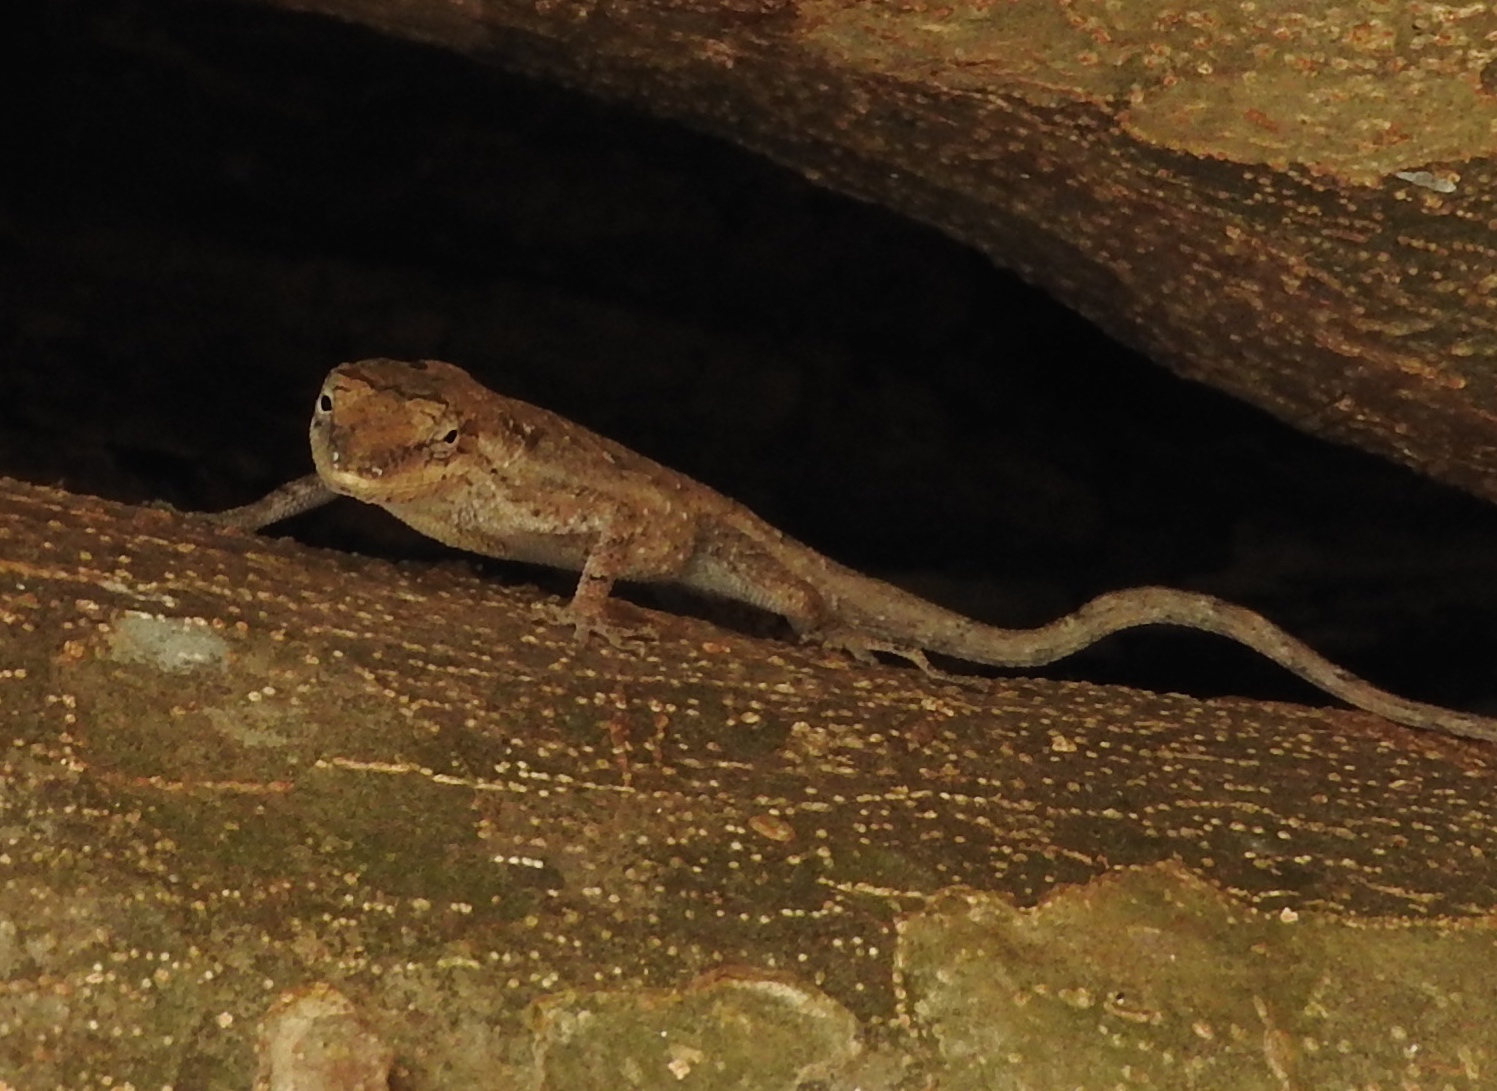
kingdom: Animalia
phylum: Chordata
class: Squamata
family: Dactyloidae
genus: Anolis
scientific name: Anolis nebulosus
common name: Clouded anole
